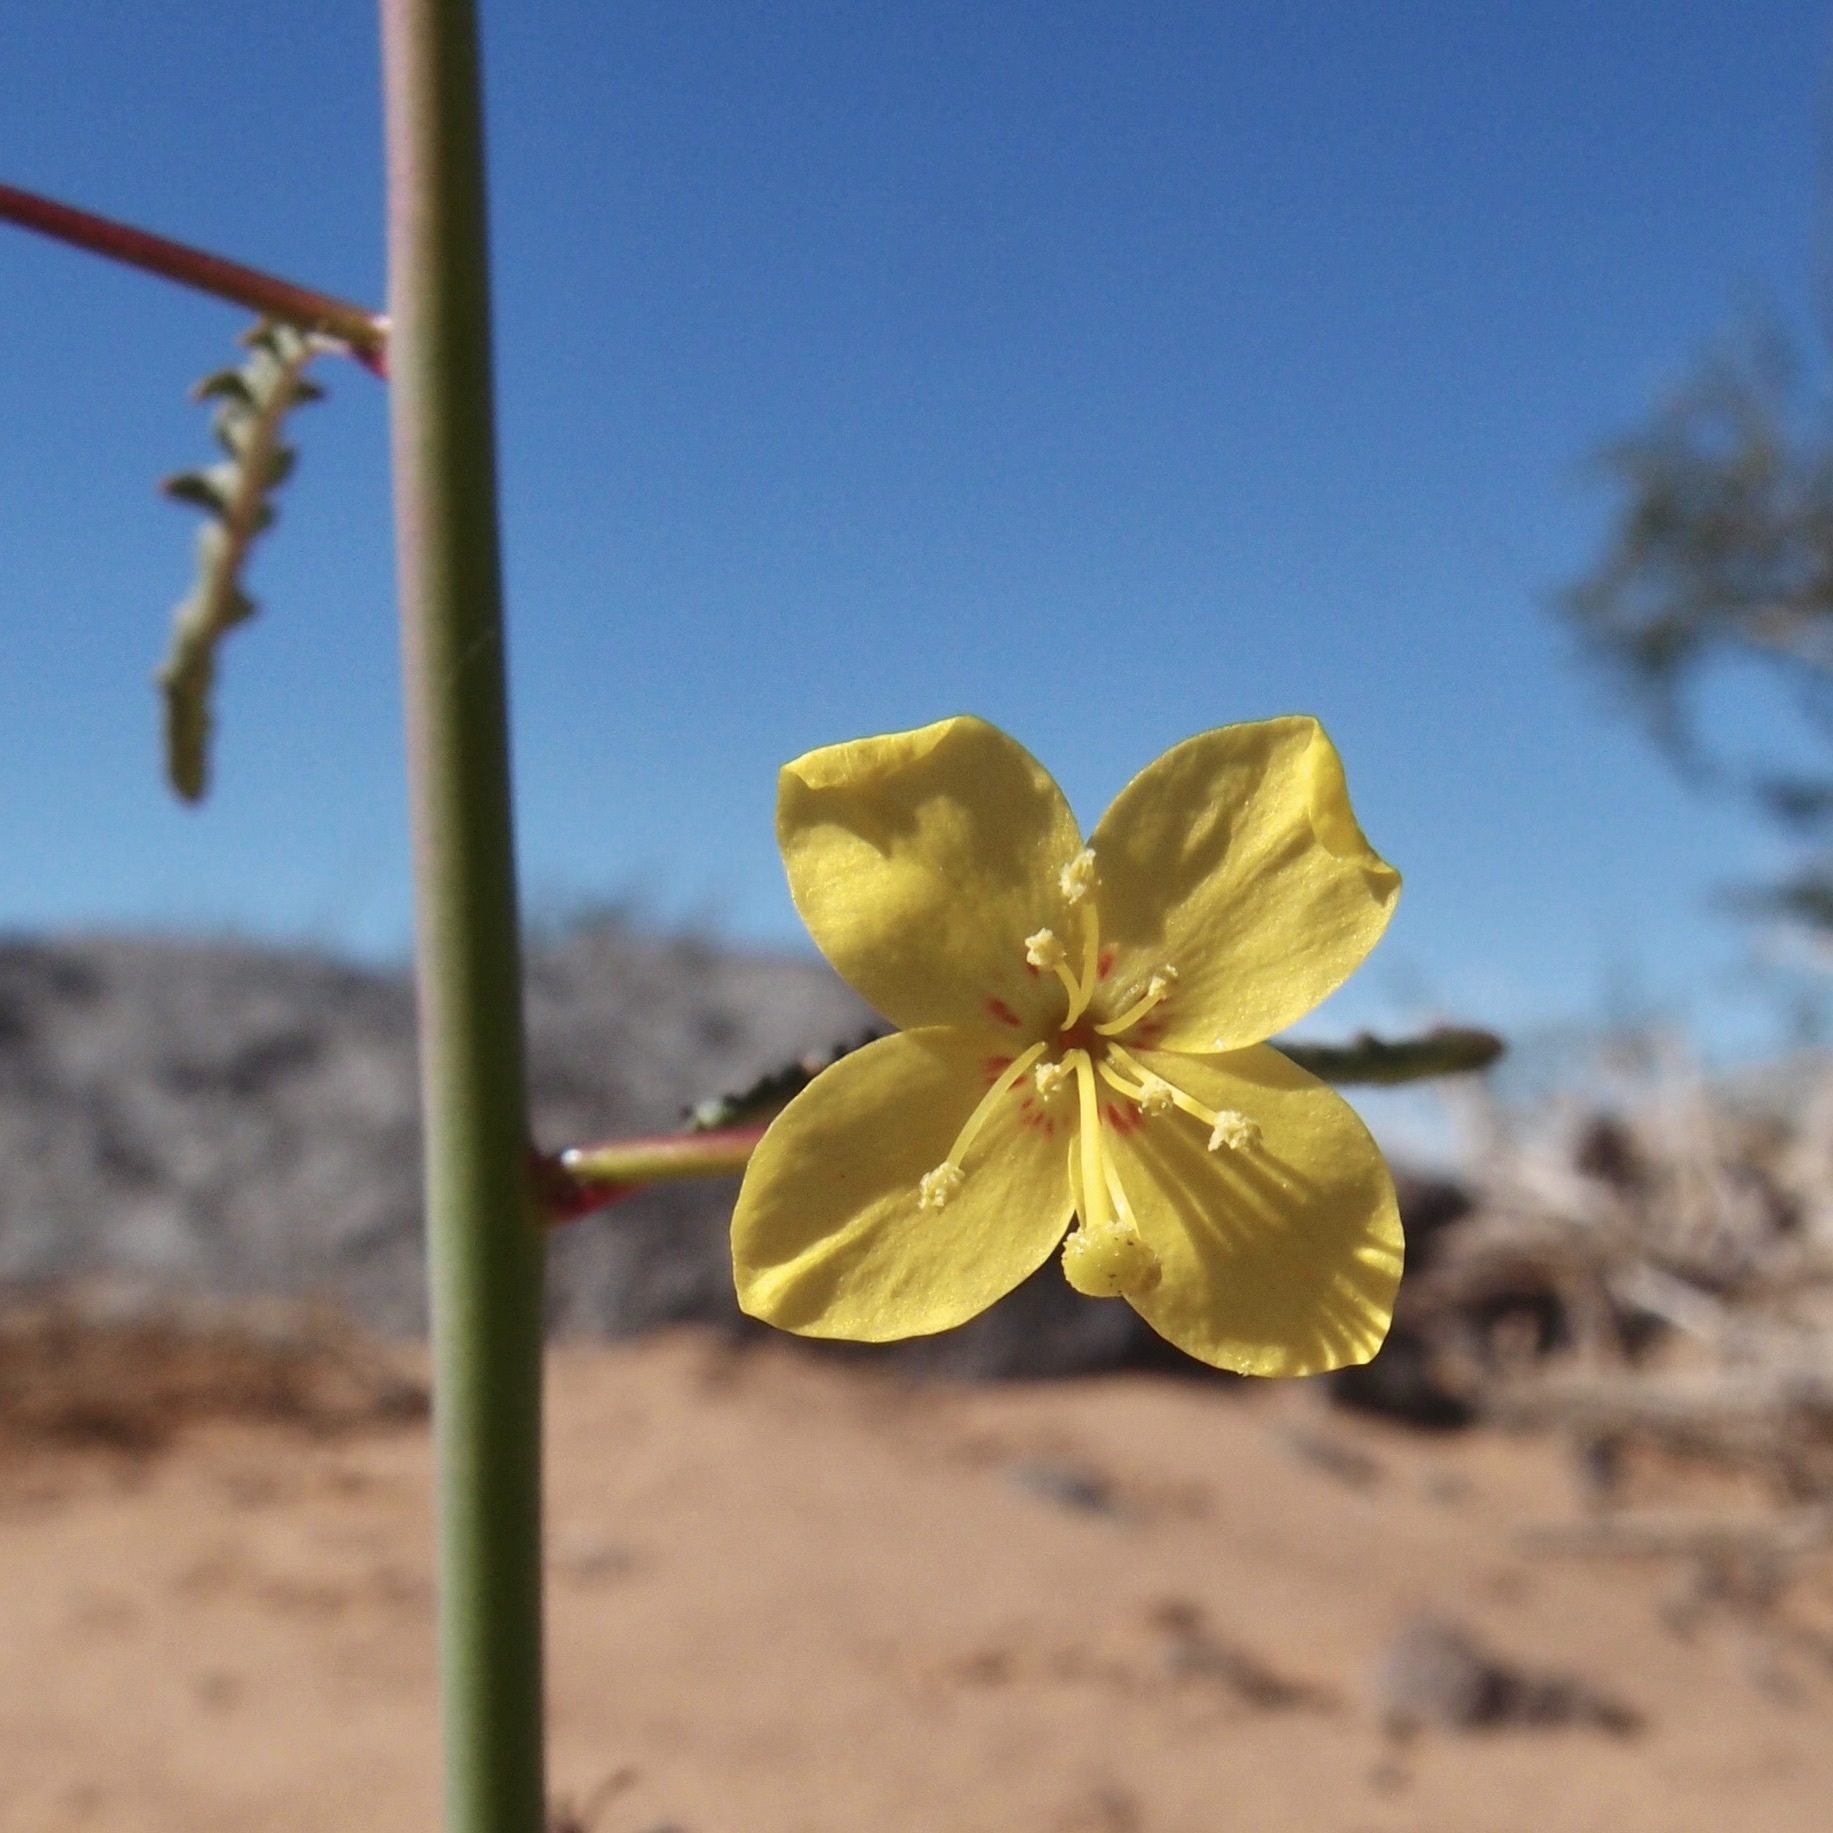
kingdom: Plantae
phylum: Tracheophyta
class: Magnoliopsida
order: Myrtales
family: Onagraceae
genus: Eulobus
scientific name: Eulobus californicus
